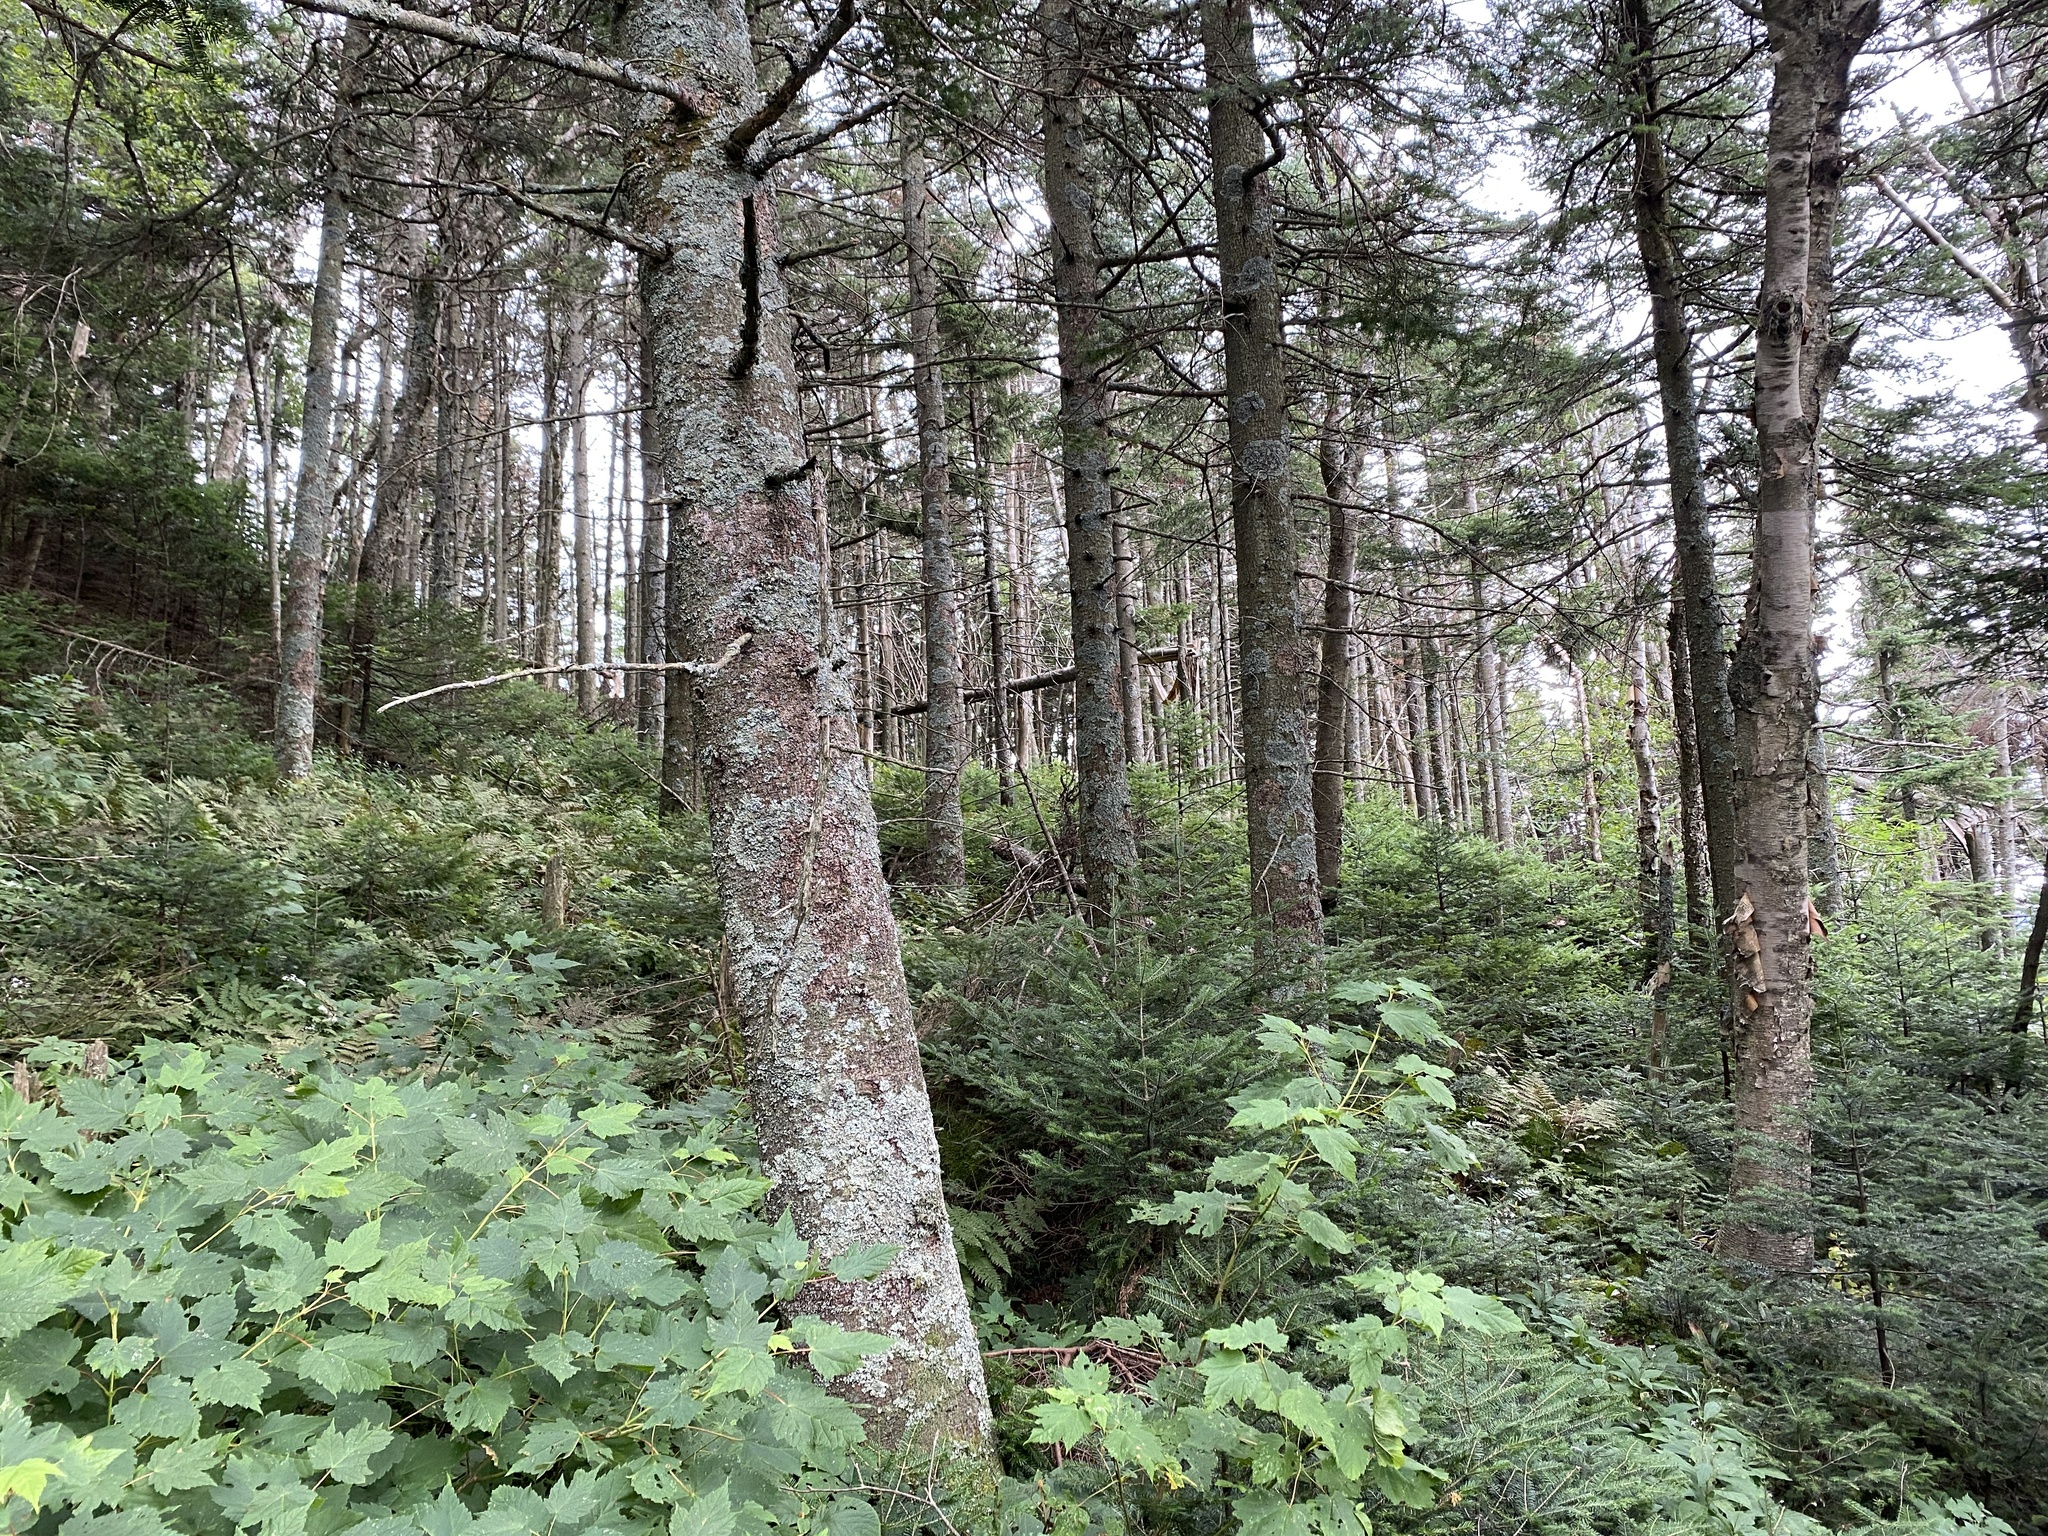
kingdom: Plantae
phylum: Tracheophyta
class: Magnoliopsida
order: Sapindales
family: Sapindaceae
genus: Acer
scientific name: Acer spicatum
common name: Mountain maple
